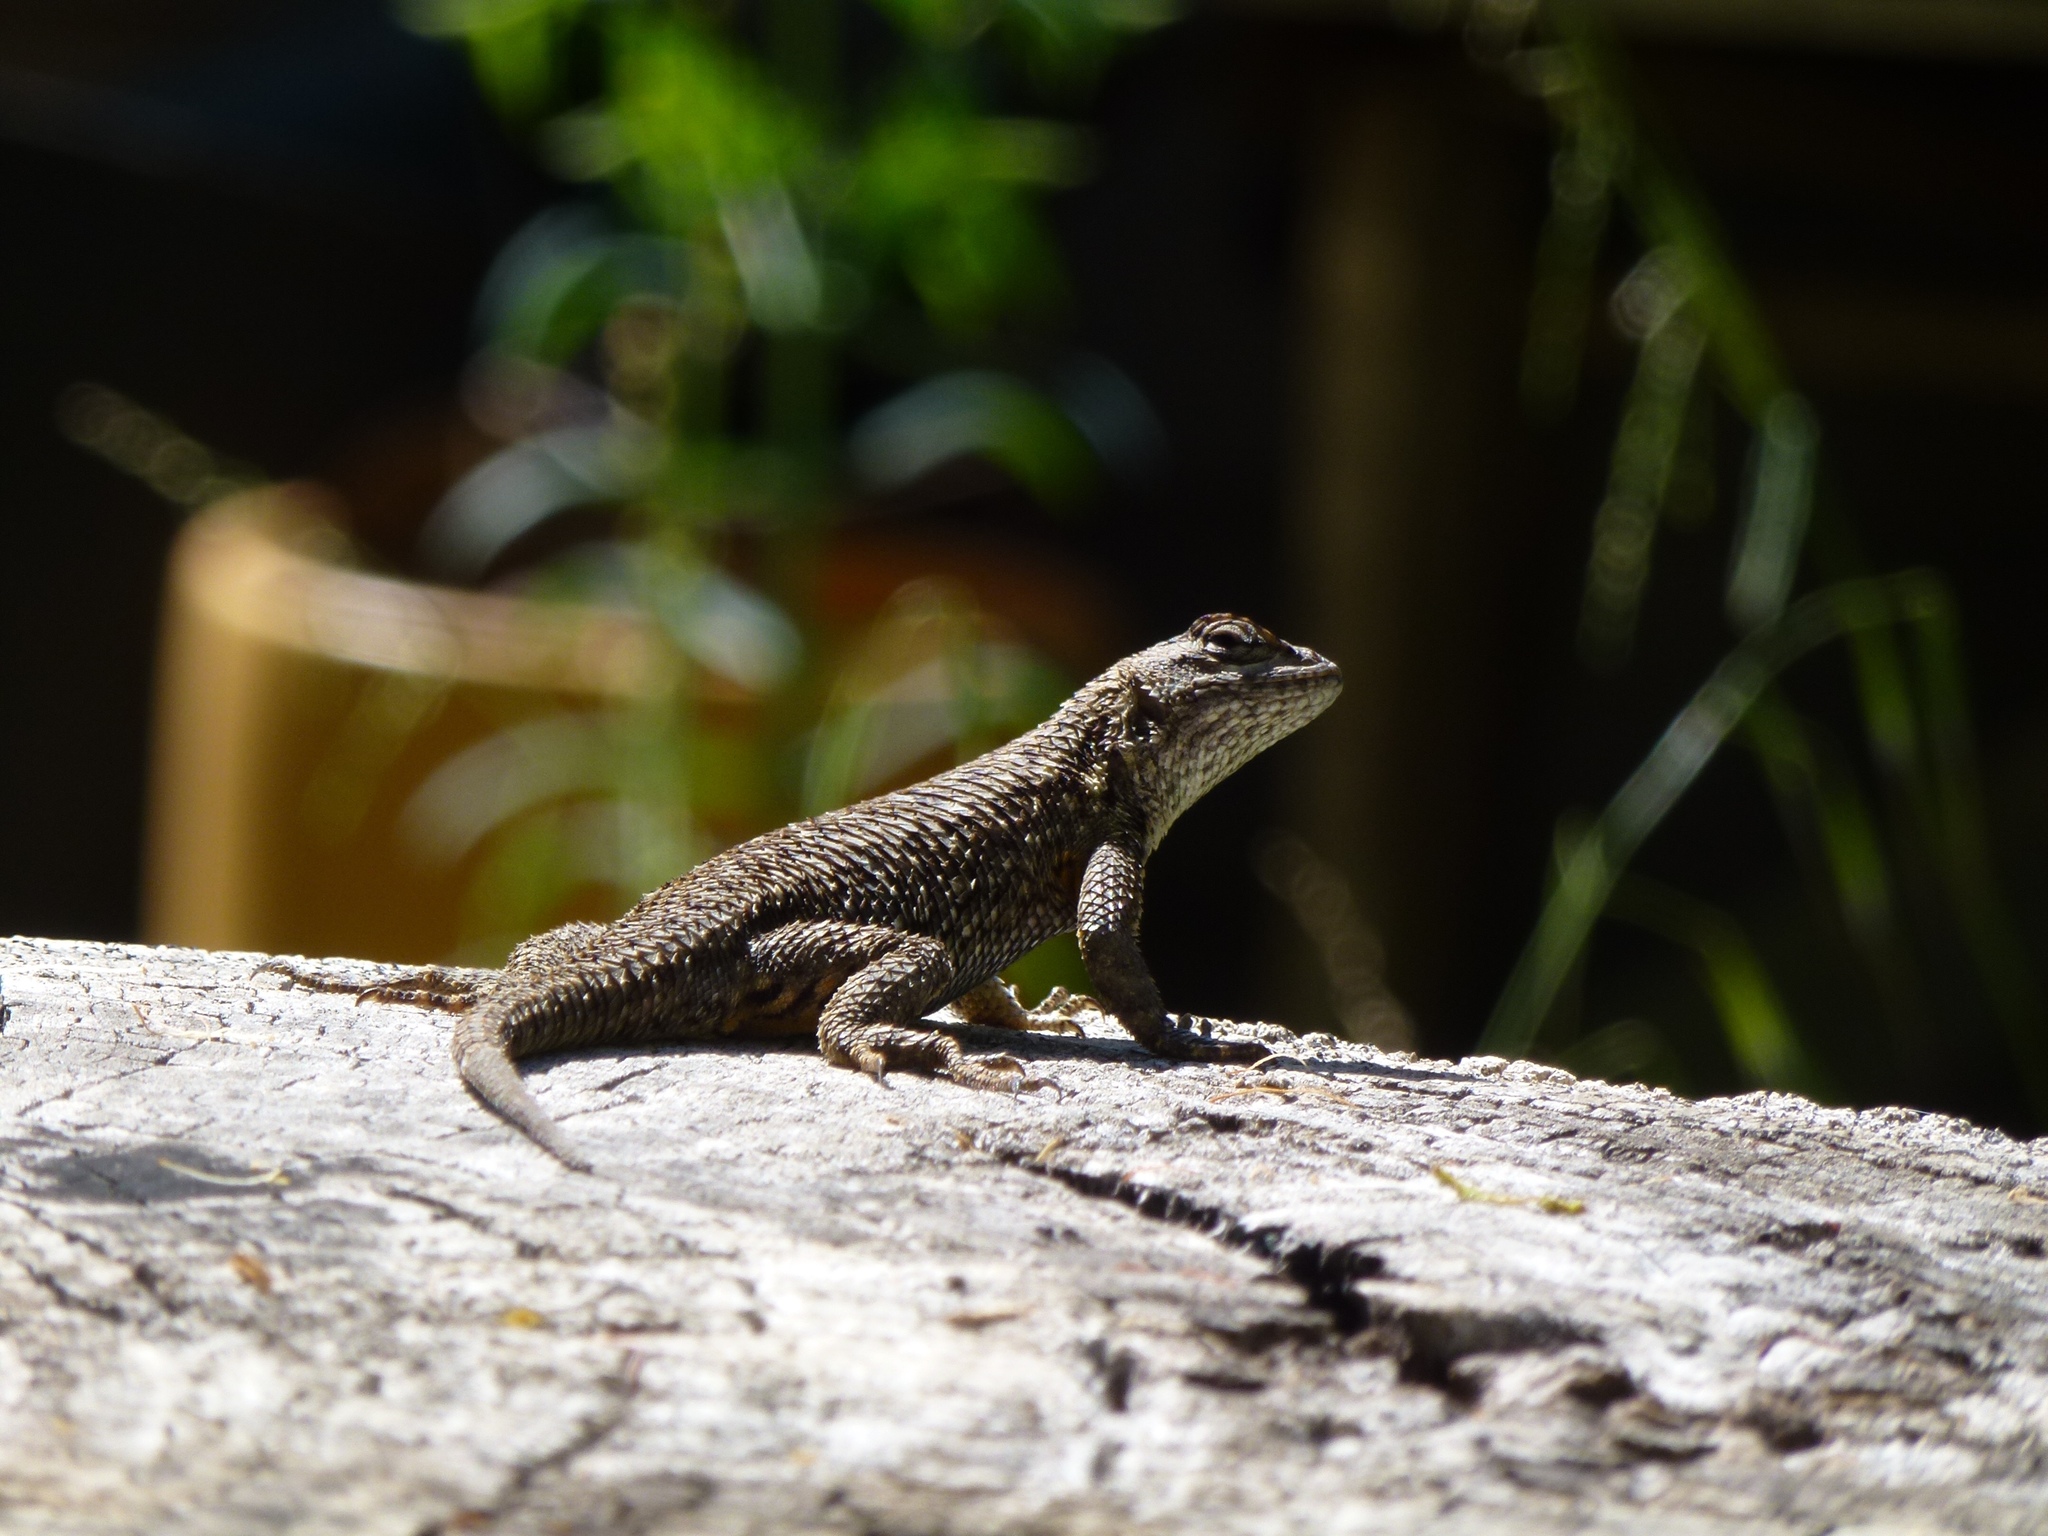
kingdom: Animalia
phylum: Chordata
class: Squamata
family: Phrynosomatidae
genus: Sceloporus
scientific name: Sceloporus occidentalis
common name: Western fence lizard
